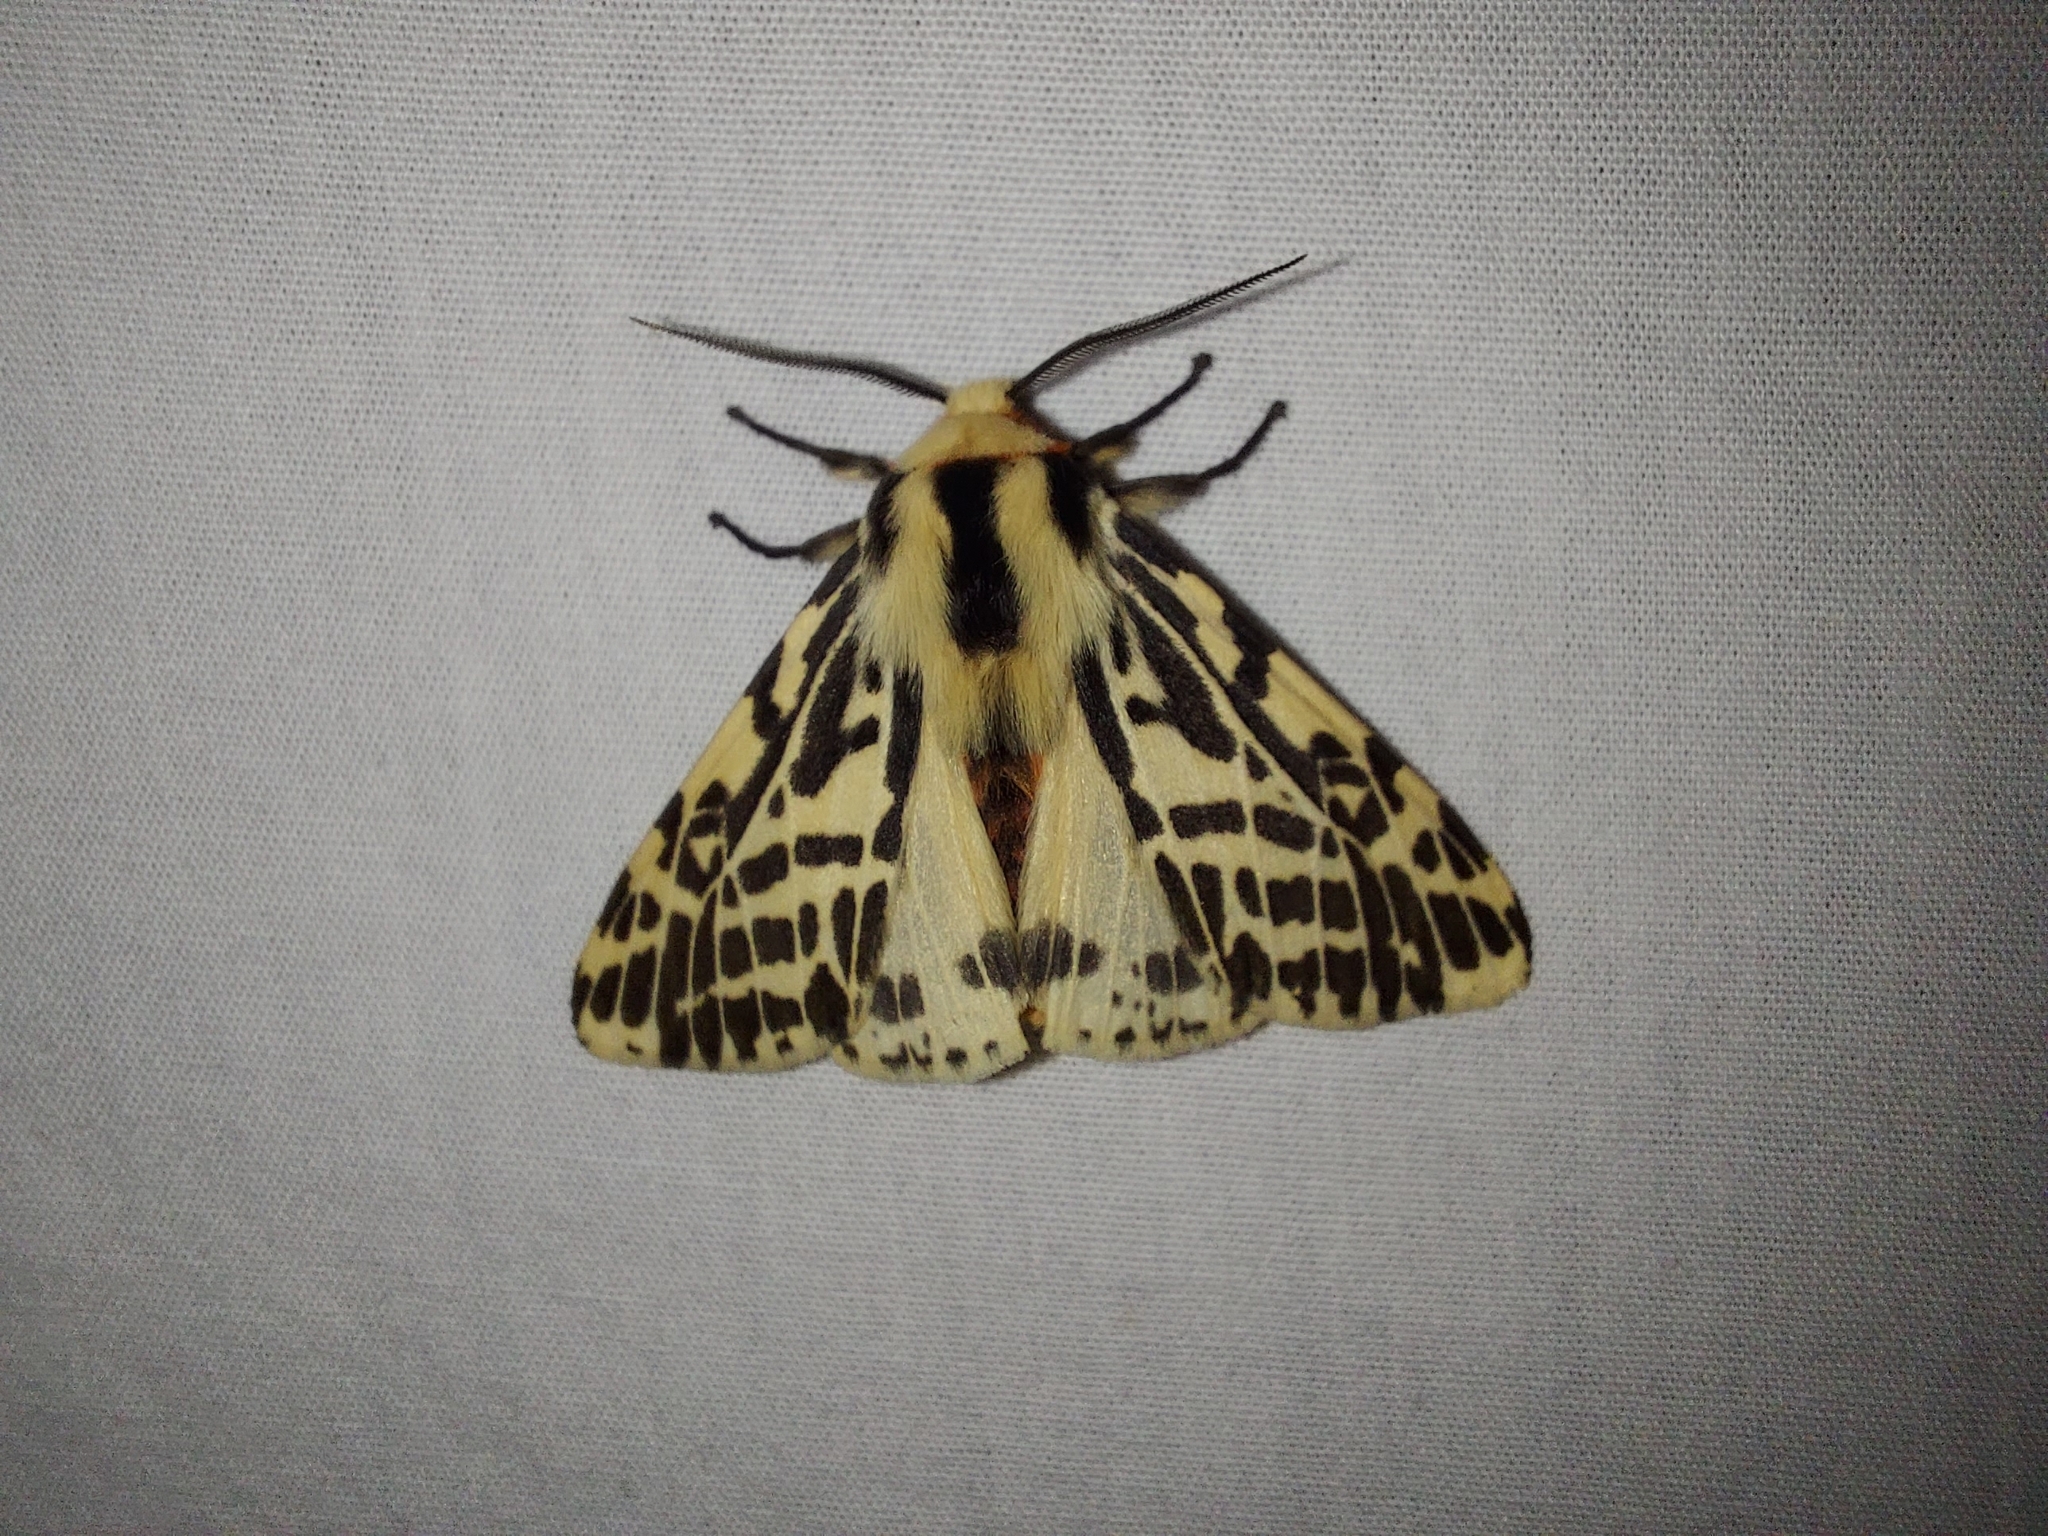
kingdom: Animalia
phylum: Arthropoda
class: Insecta
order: Lepidoptera
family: Erebidae
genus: Ardices
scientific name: Ardices glatignyi
